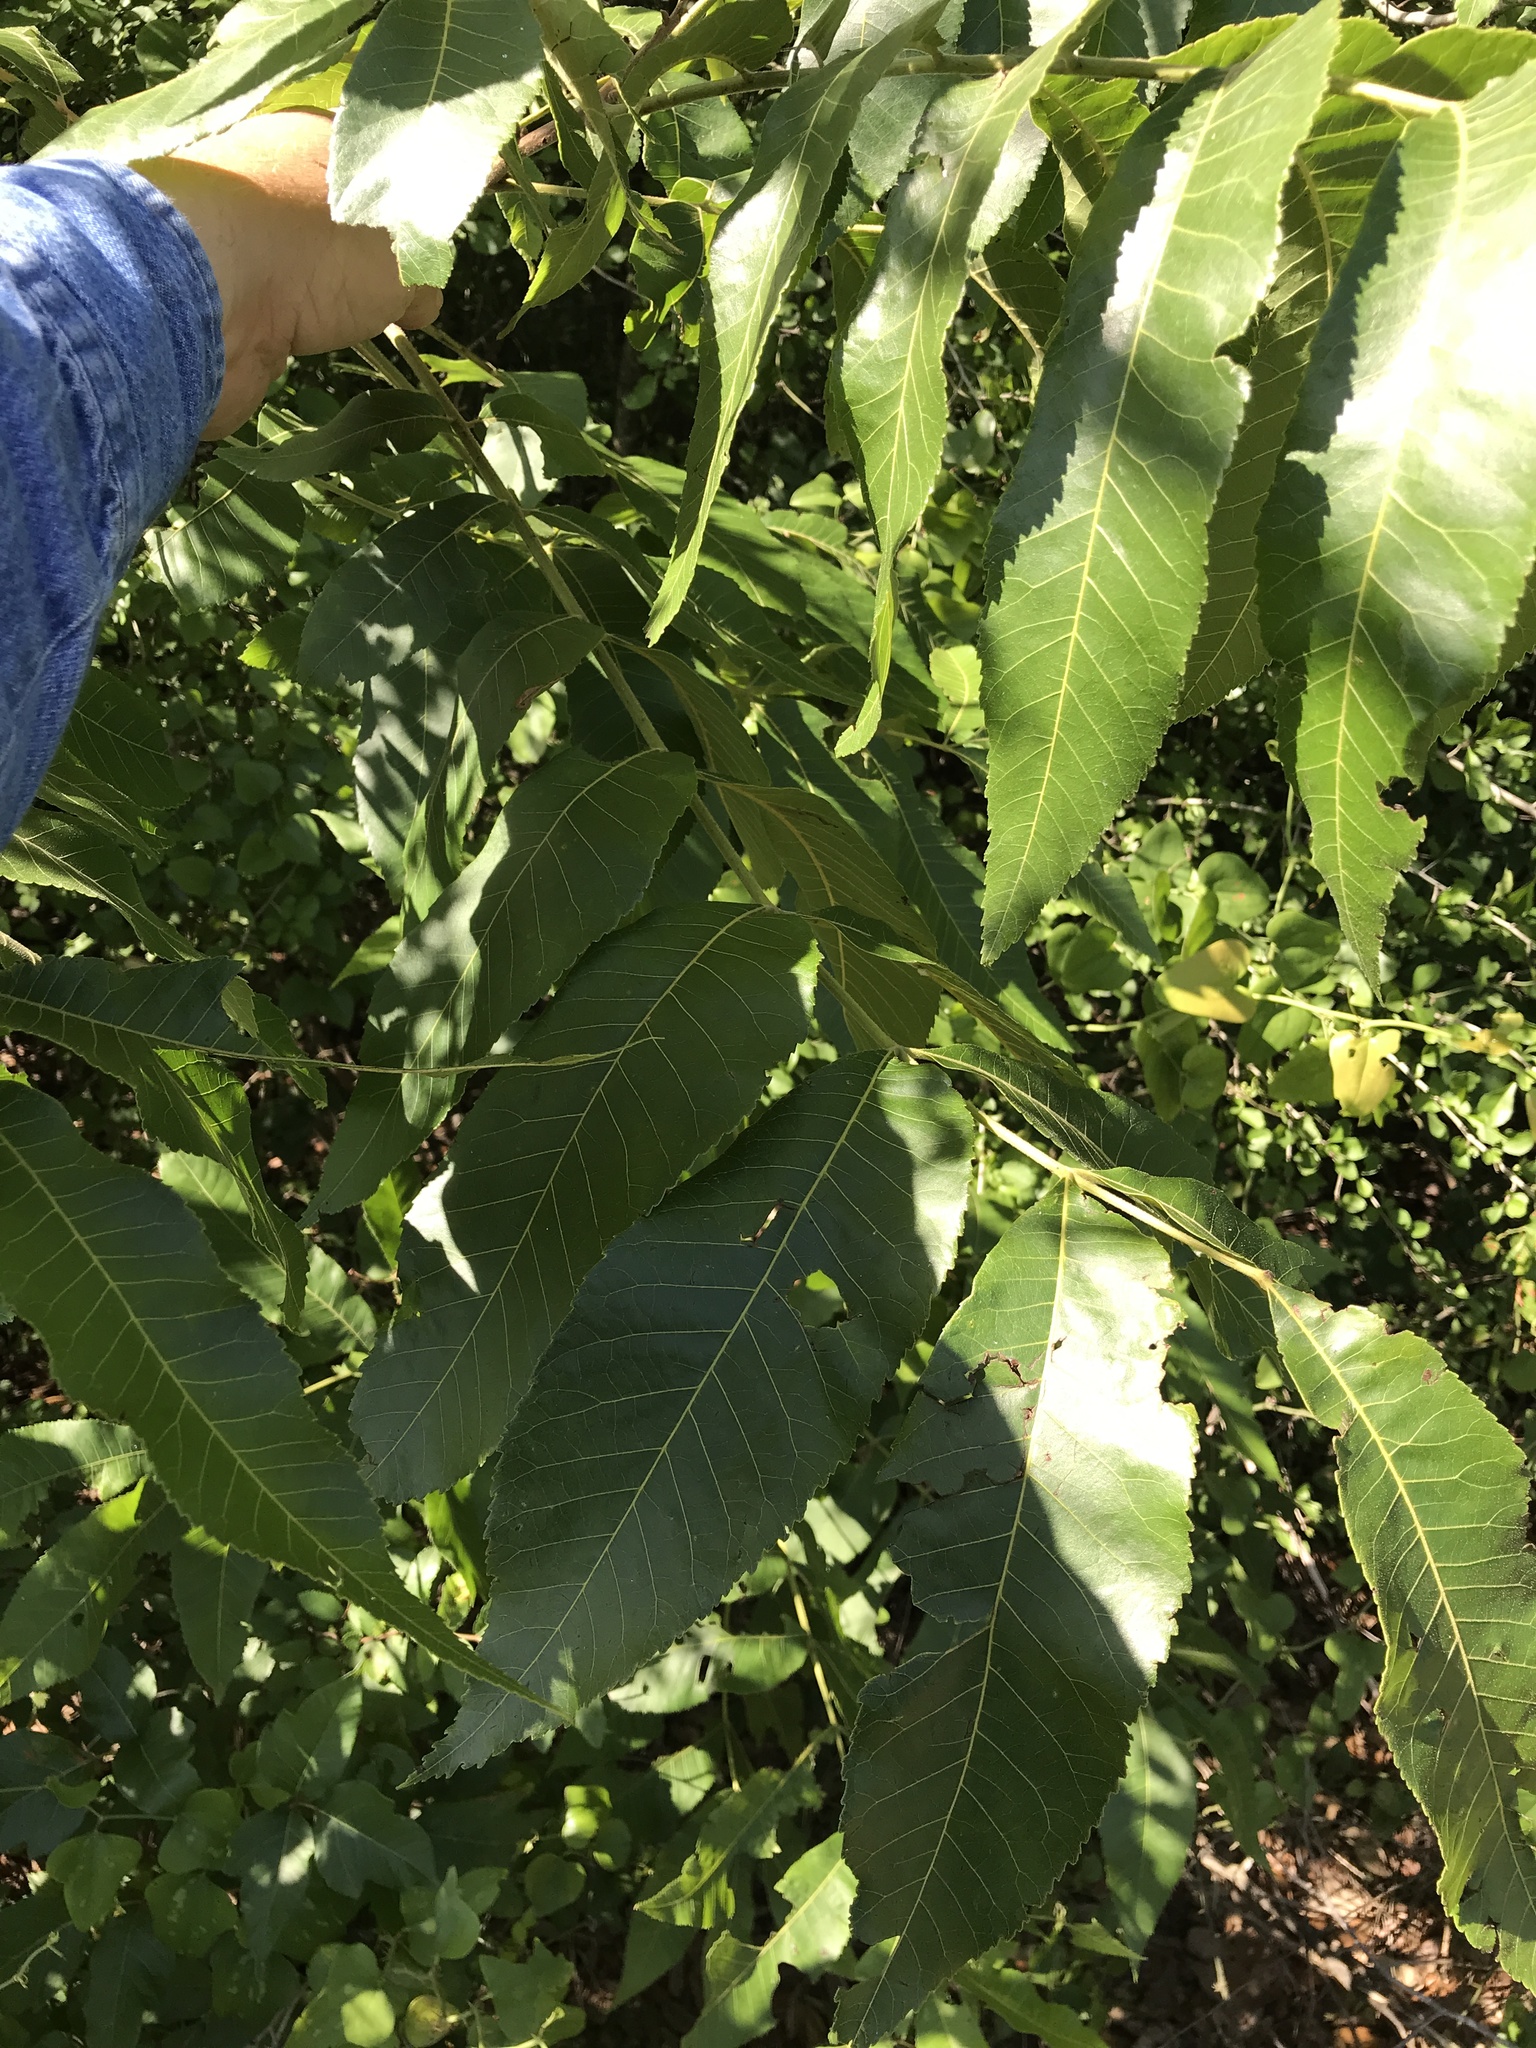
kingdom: Plantae
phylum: Tracheophyta
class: Magnoliopsida
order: Fagales
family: Juglandaceae
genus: Carya
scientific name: Carya illinoinensis
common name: Pecan
